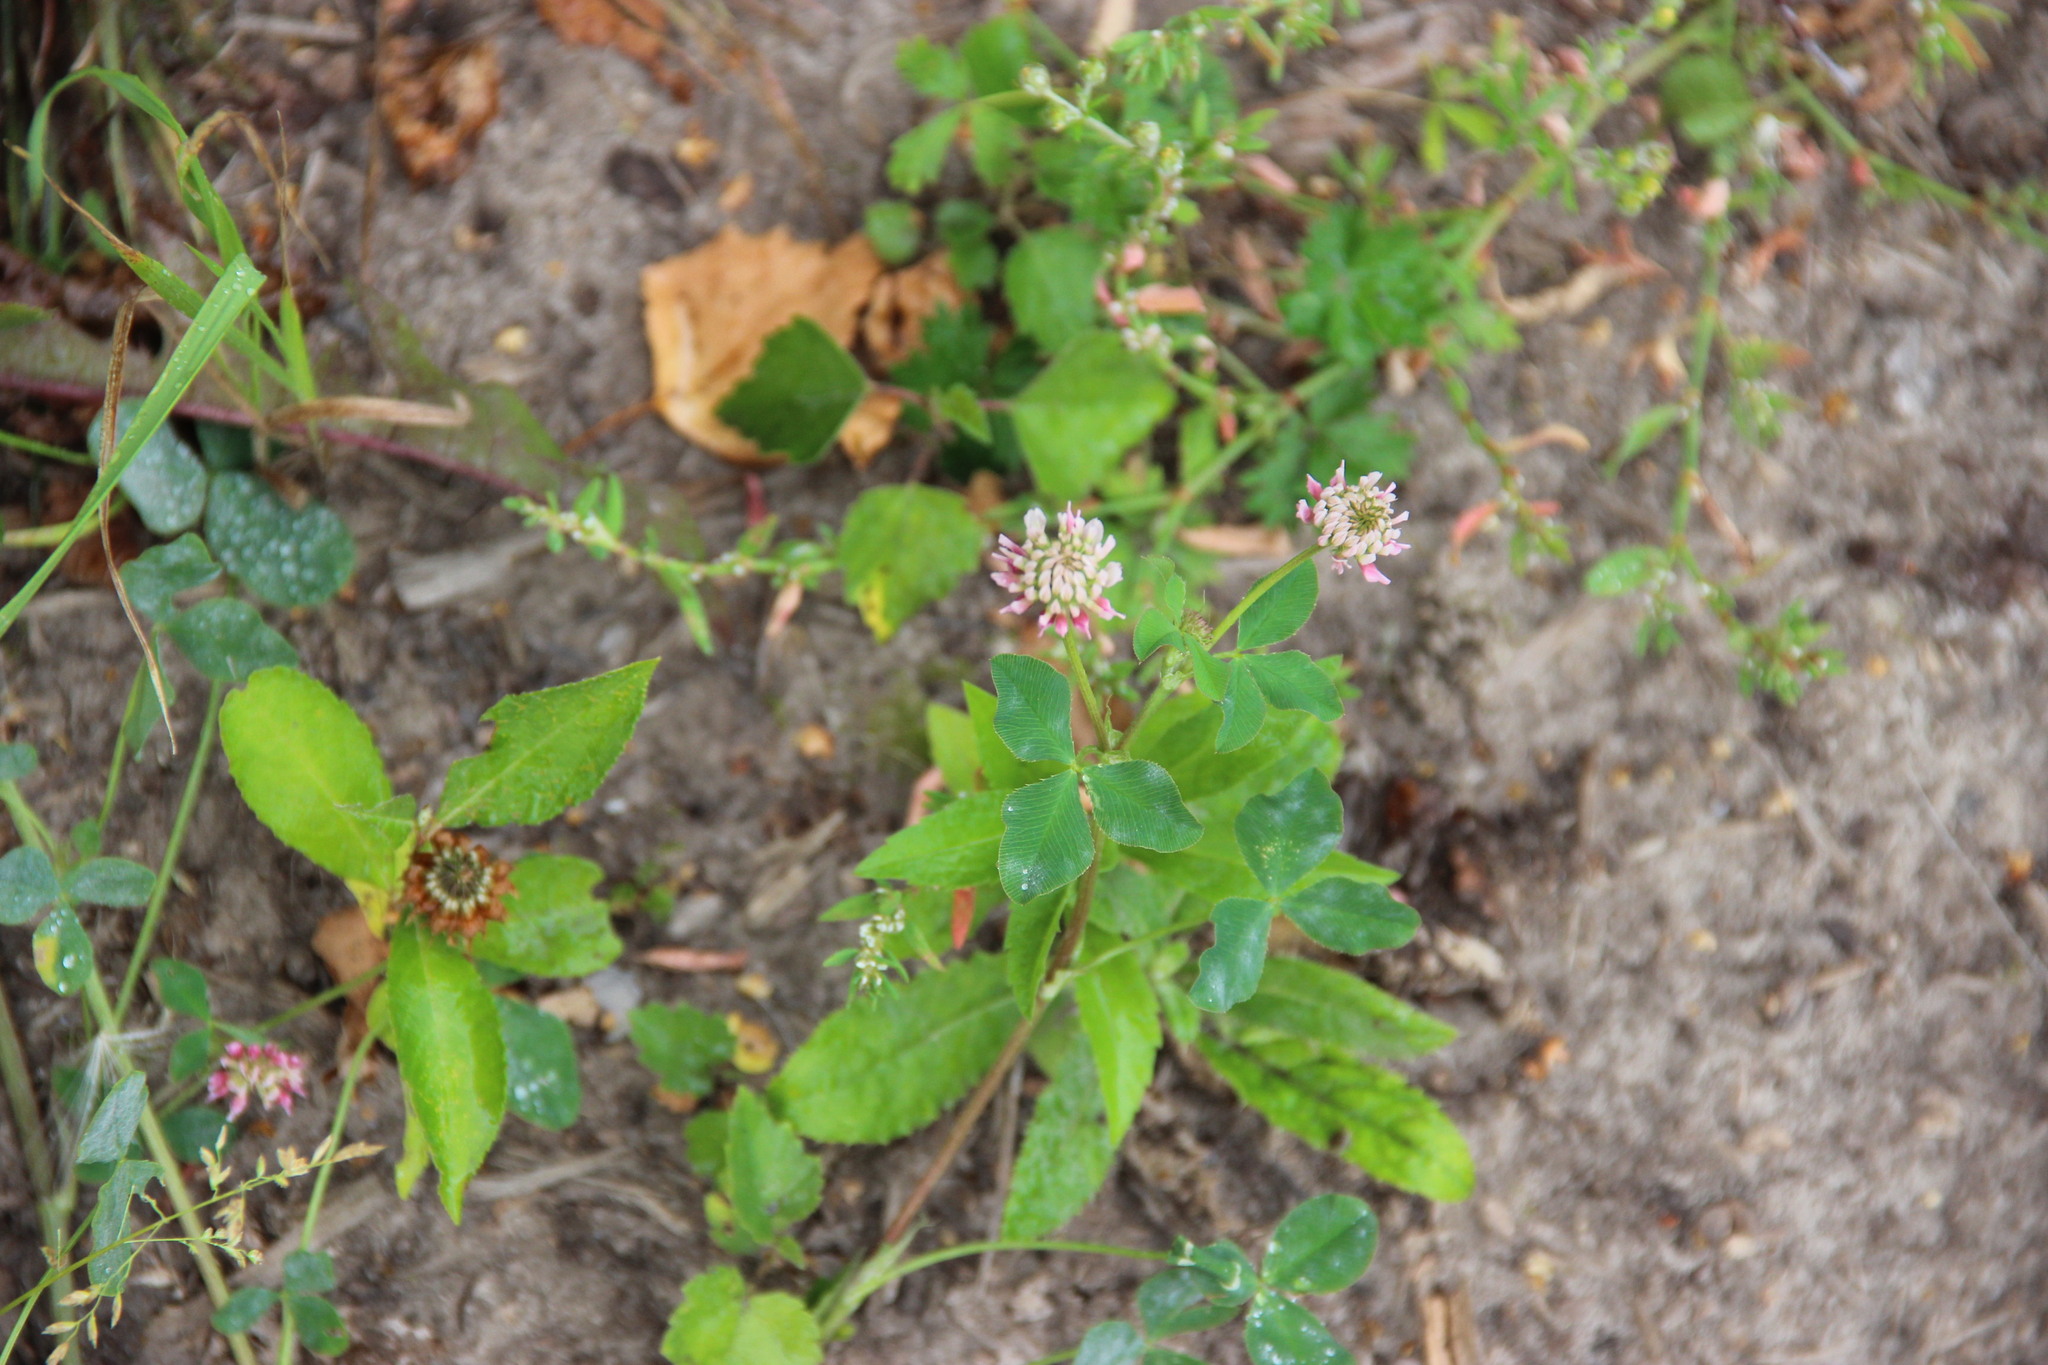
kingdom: Plantae
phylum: Tracheophyta
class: Magnoliopsida
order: Fabales
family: Fabaceae
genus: Trifolium
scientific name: Trifolium hybridum
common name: Alsike clover
